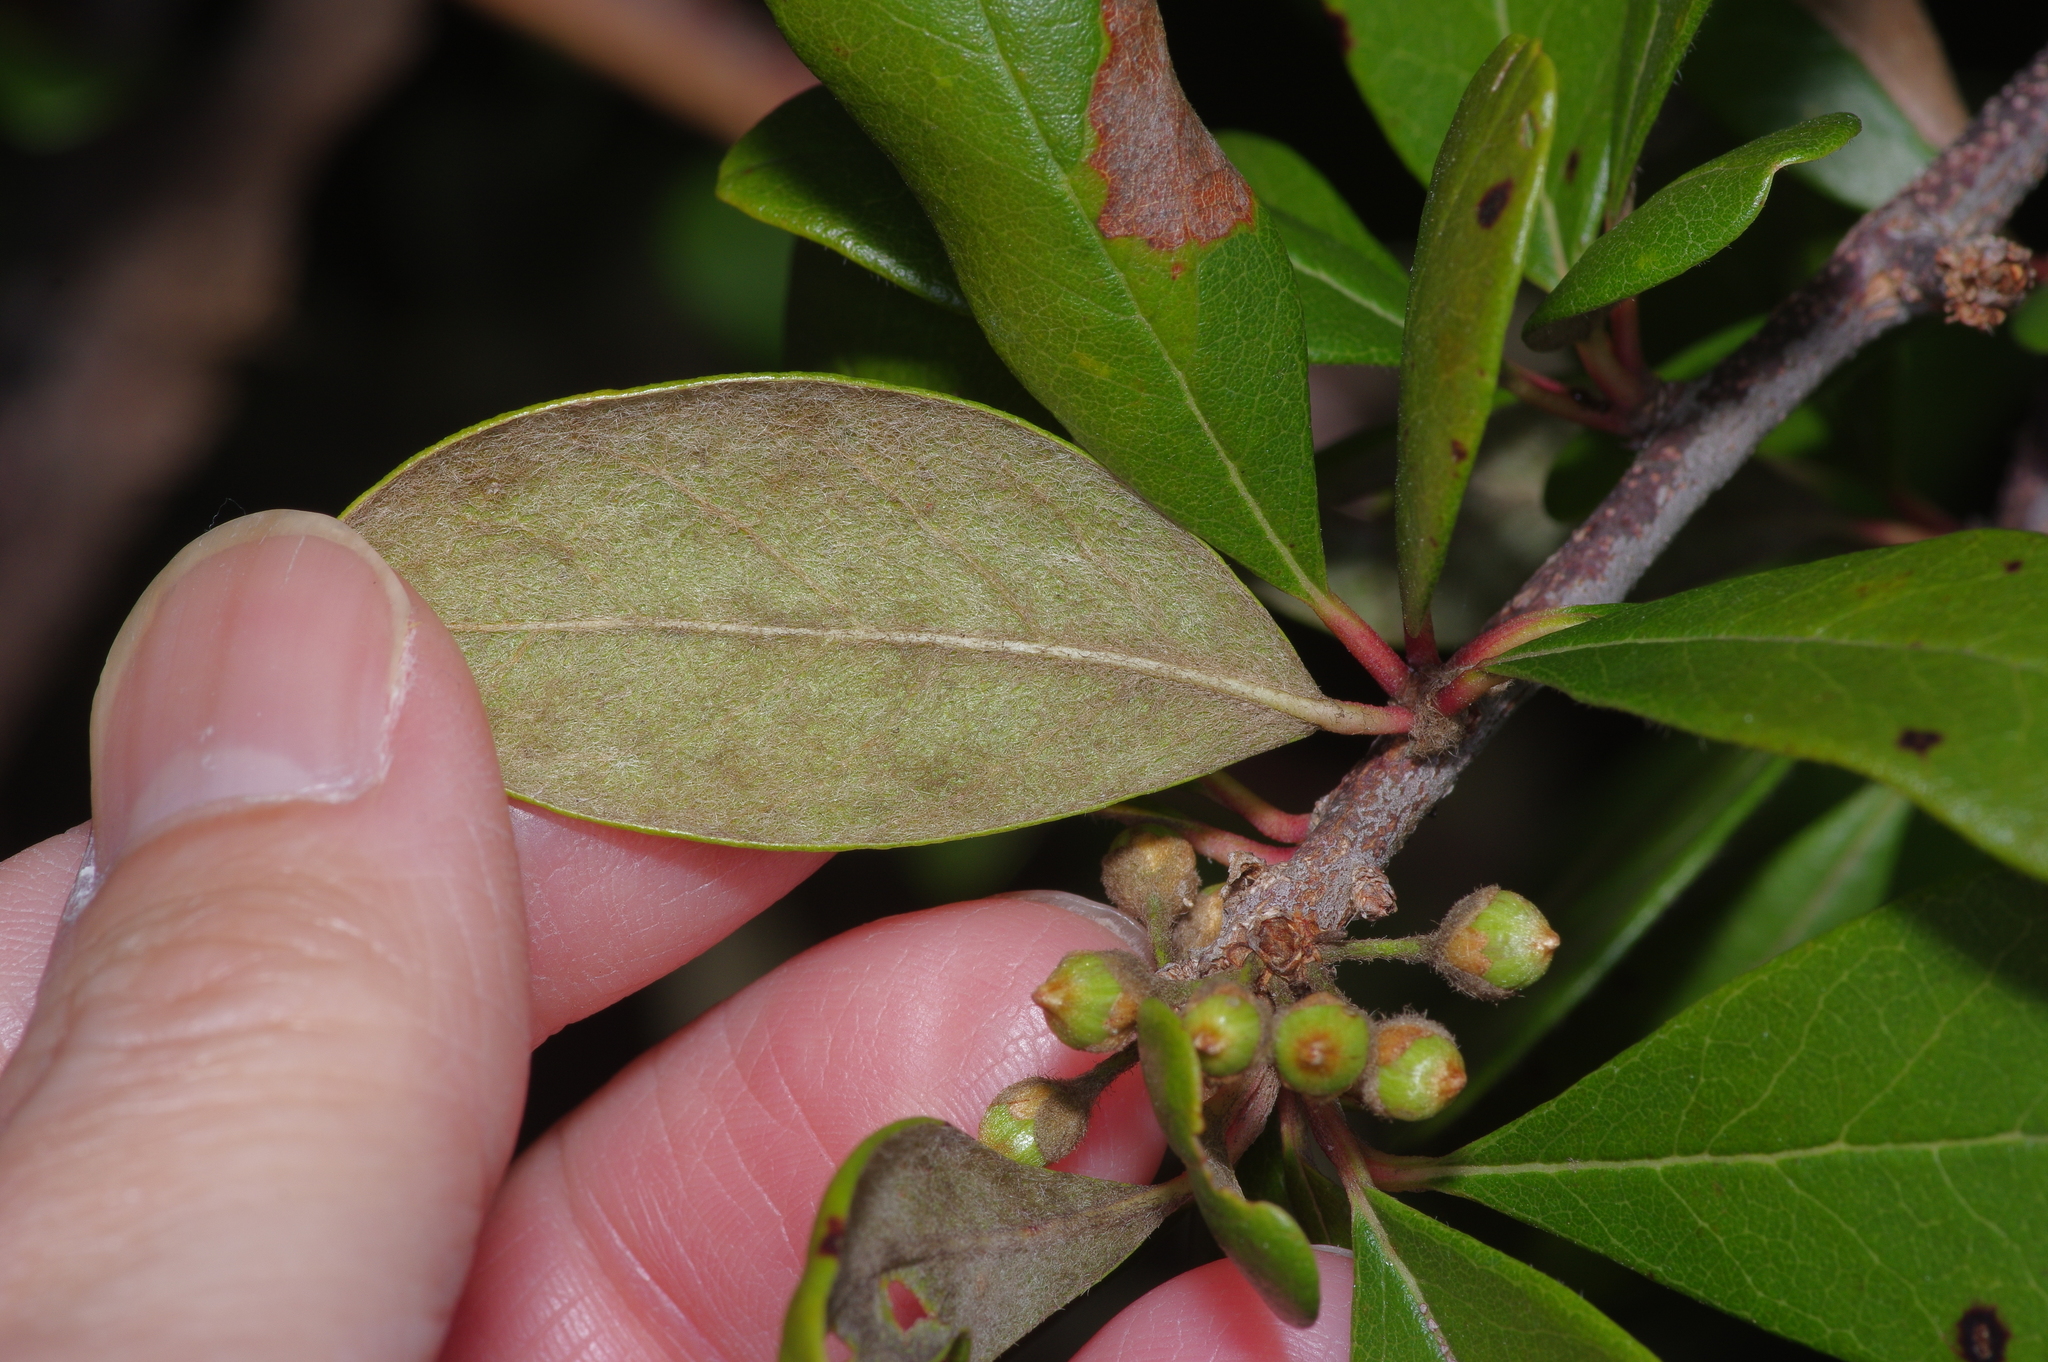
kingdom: Plantae
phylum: Tracheophyta
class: Magnoliopsida
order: Ericales
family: Sapotaceae
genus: Sideroxylon
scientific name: Sideroxylon lanuginosum
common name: Chittamwood
